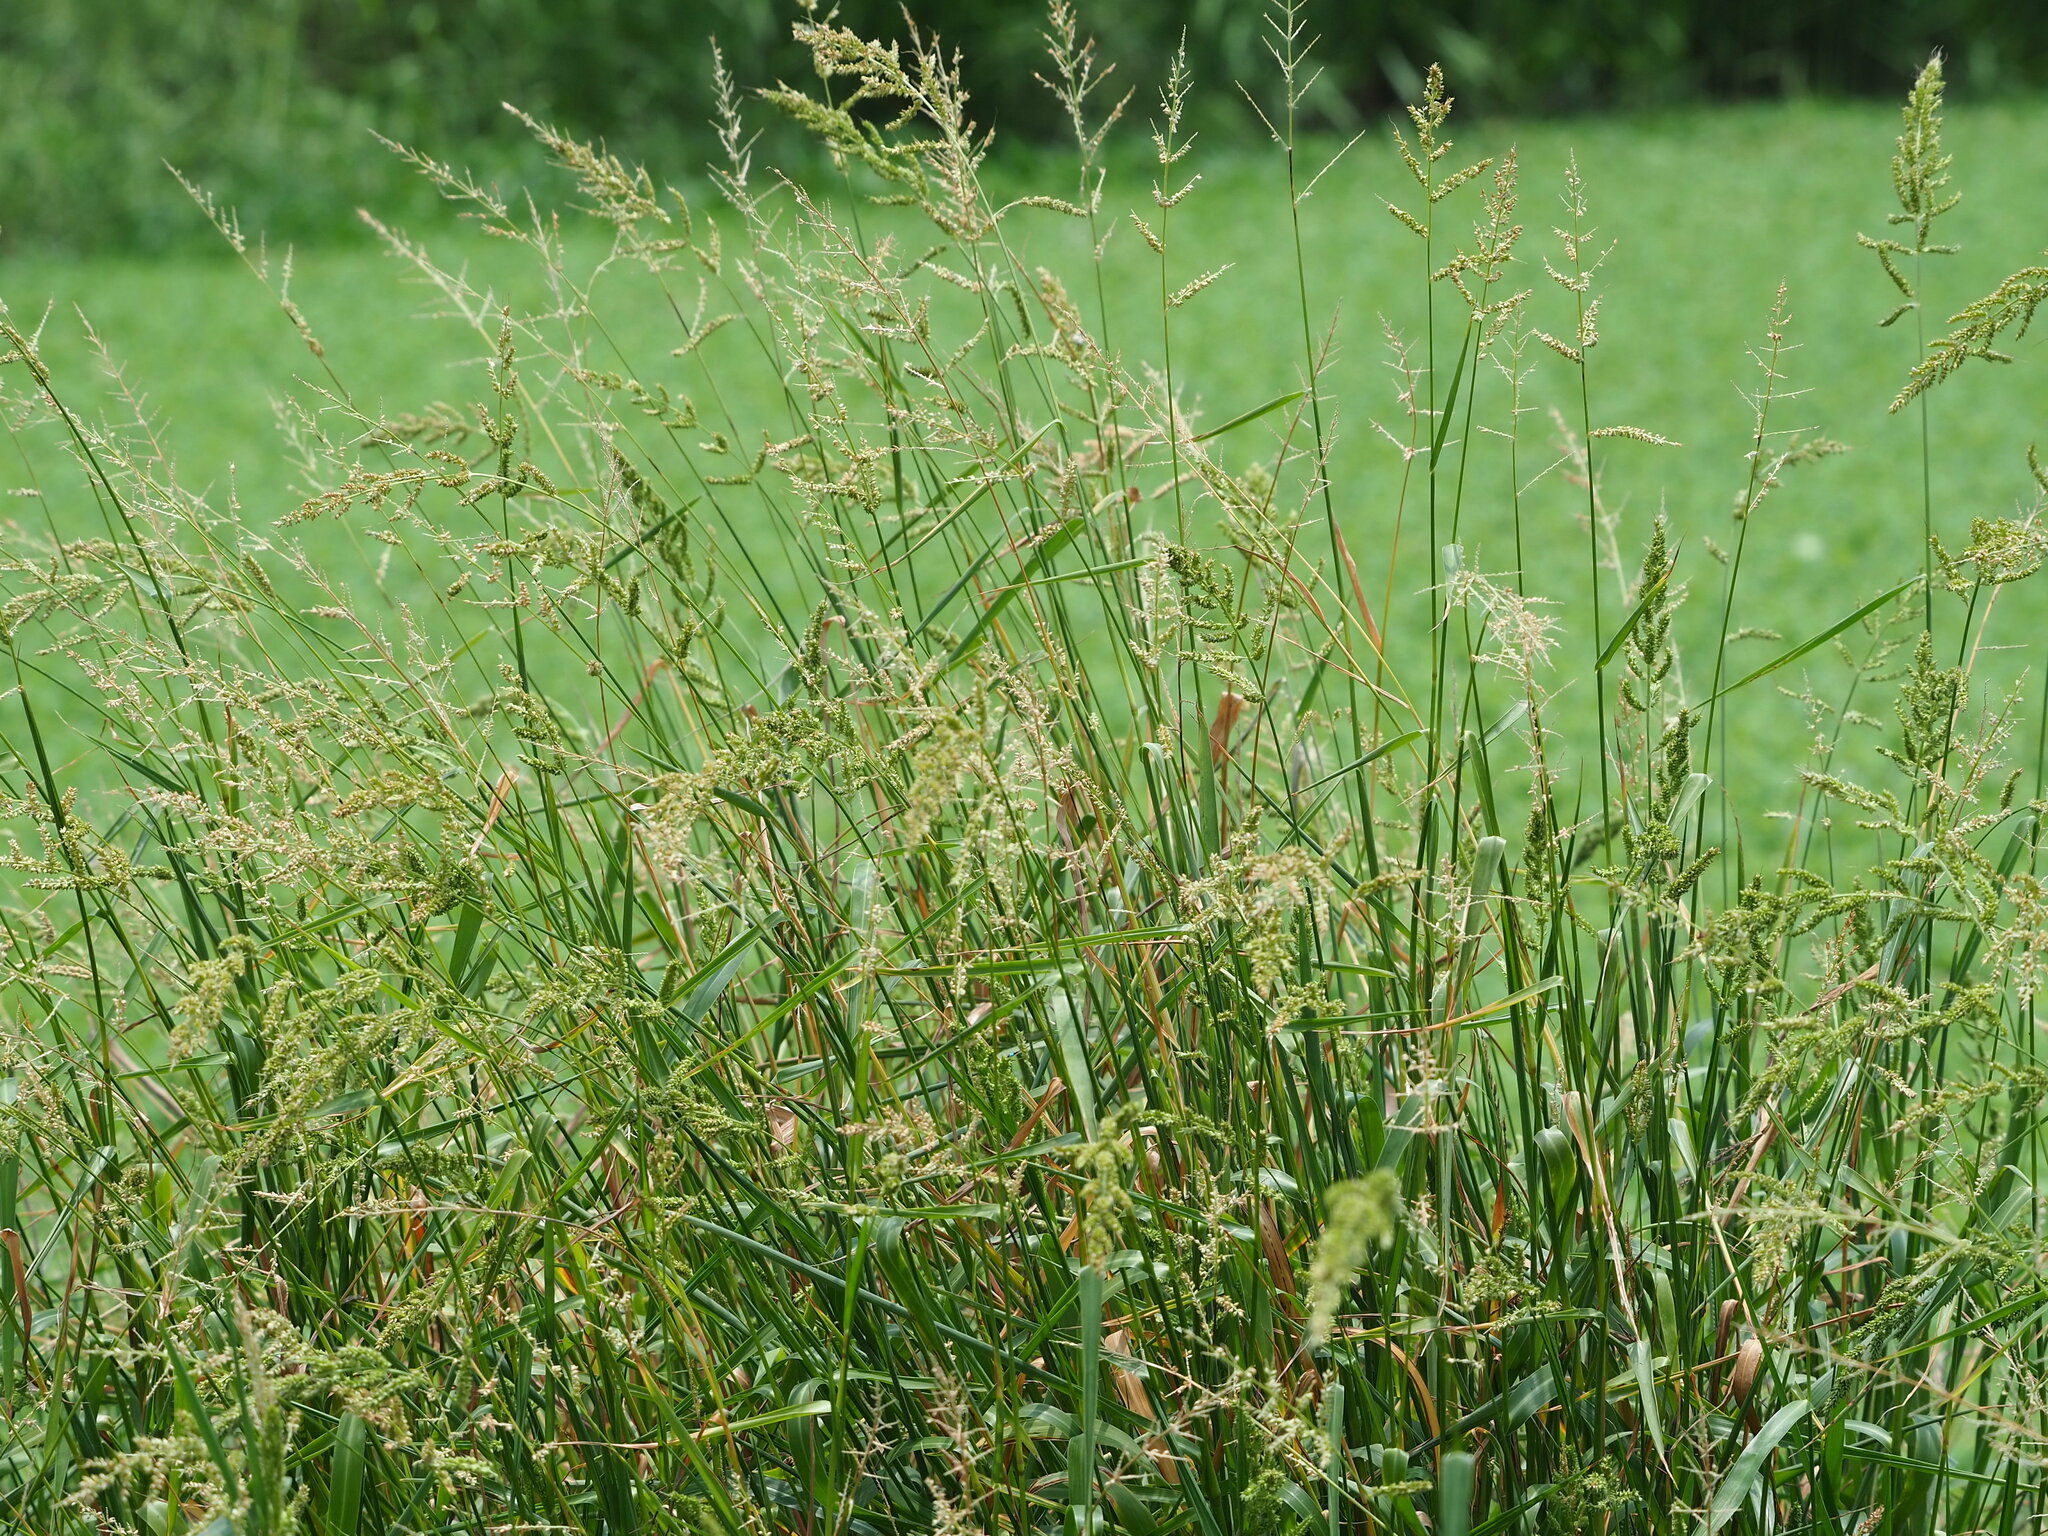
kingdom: Plantae
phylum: Tracheophyta
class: Liliopsida
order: Poales
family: Poaceae
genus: Echinochloa
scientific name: Echinochloa colonum
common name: Jungle rice
